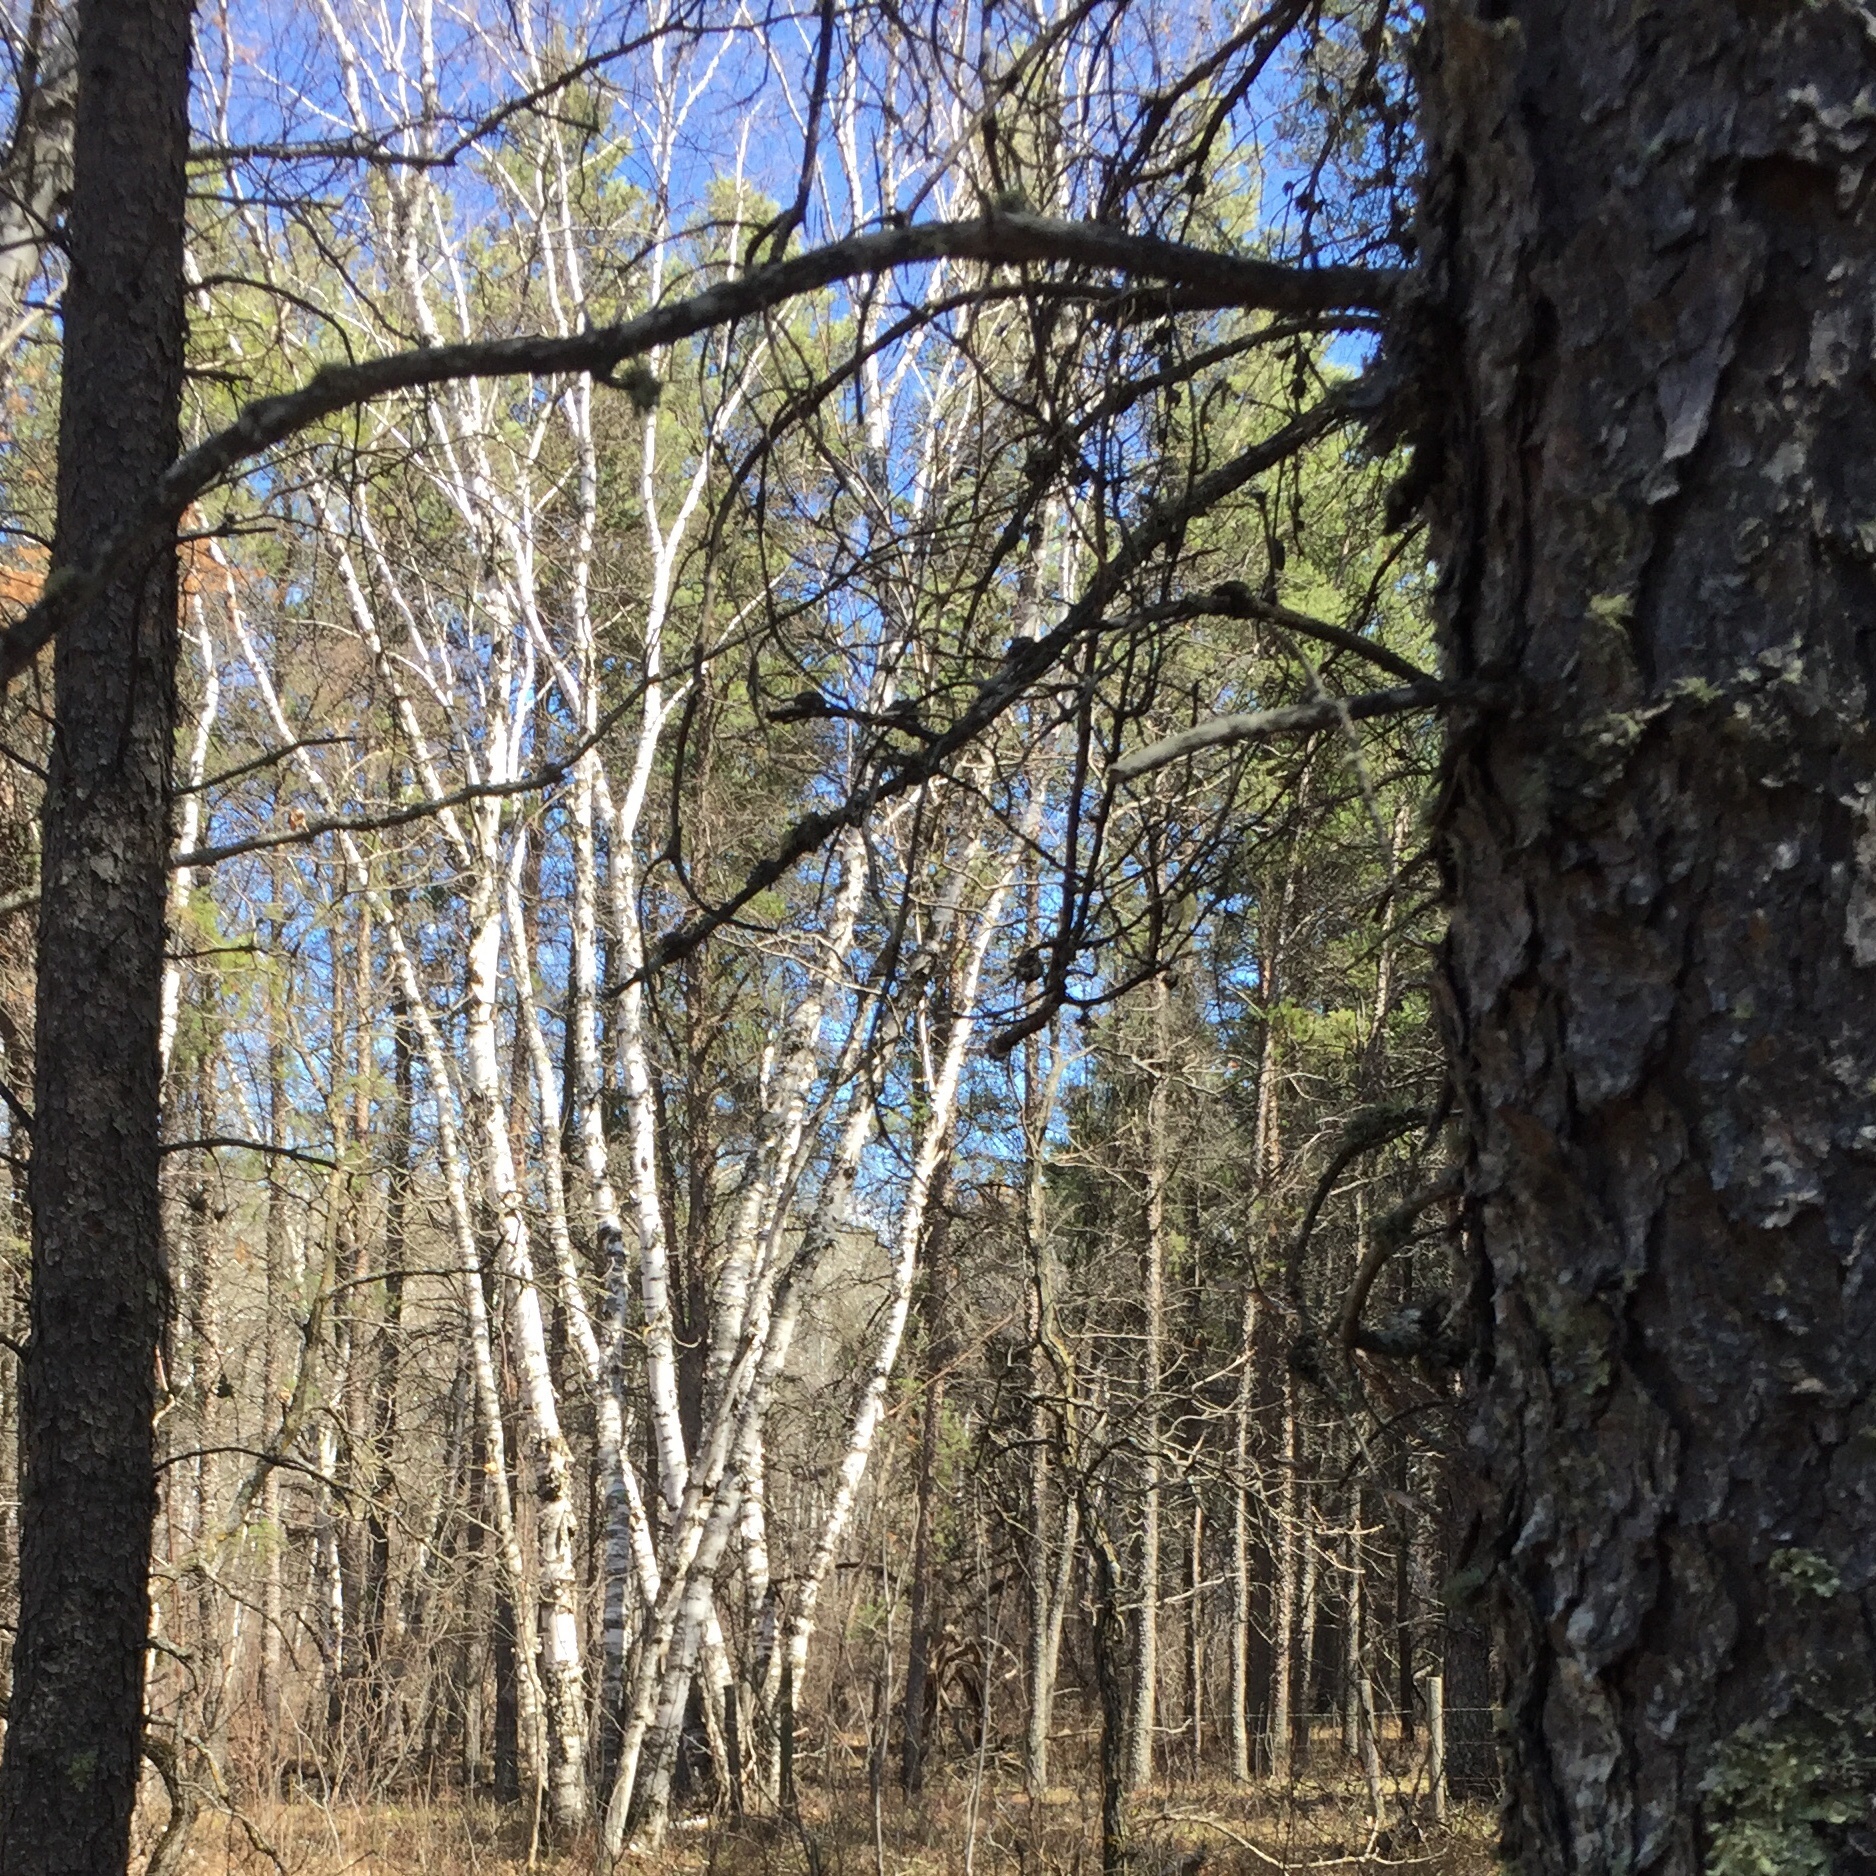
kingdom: Plantae
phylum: Tracheophyta
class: Magnoliopsida
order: Fagales
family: Betulaceae
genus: Betula
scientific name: Betula papyrifera
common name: Paper birch
